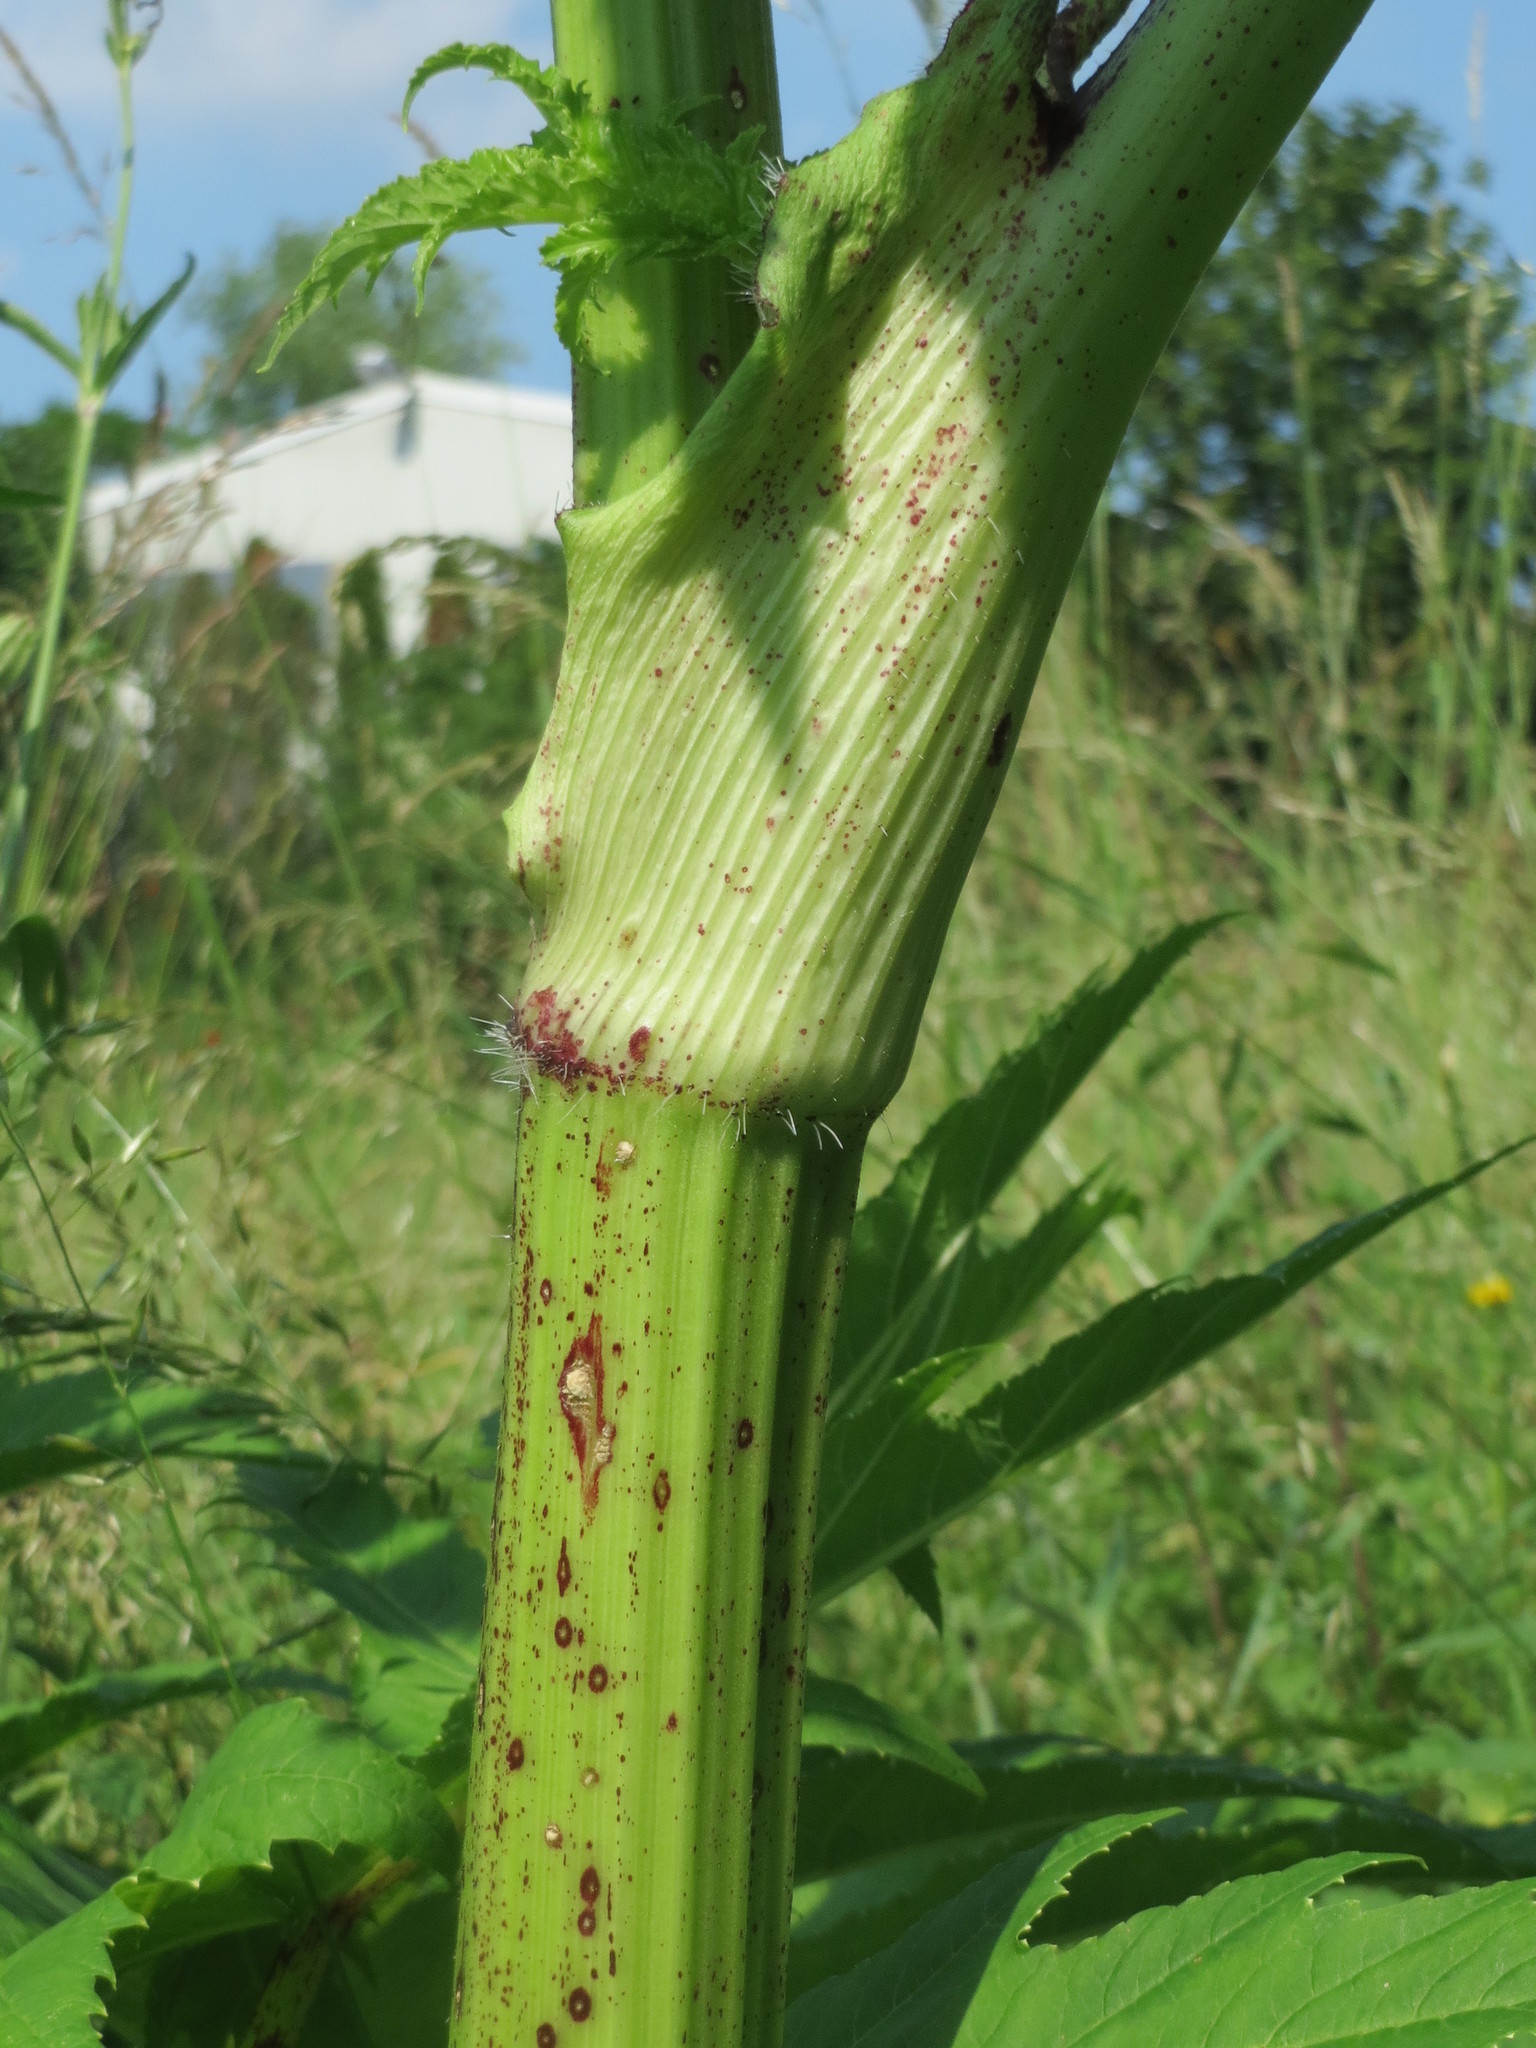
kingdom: Plantae
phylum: Tracheophyta
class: Magnoliopsida
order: Apiales
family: Apiaceae
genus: Heracleum
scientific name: Heracleum mantegazzianum
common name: Giant hogweed
